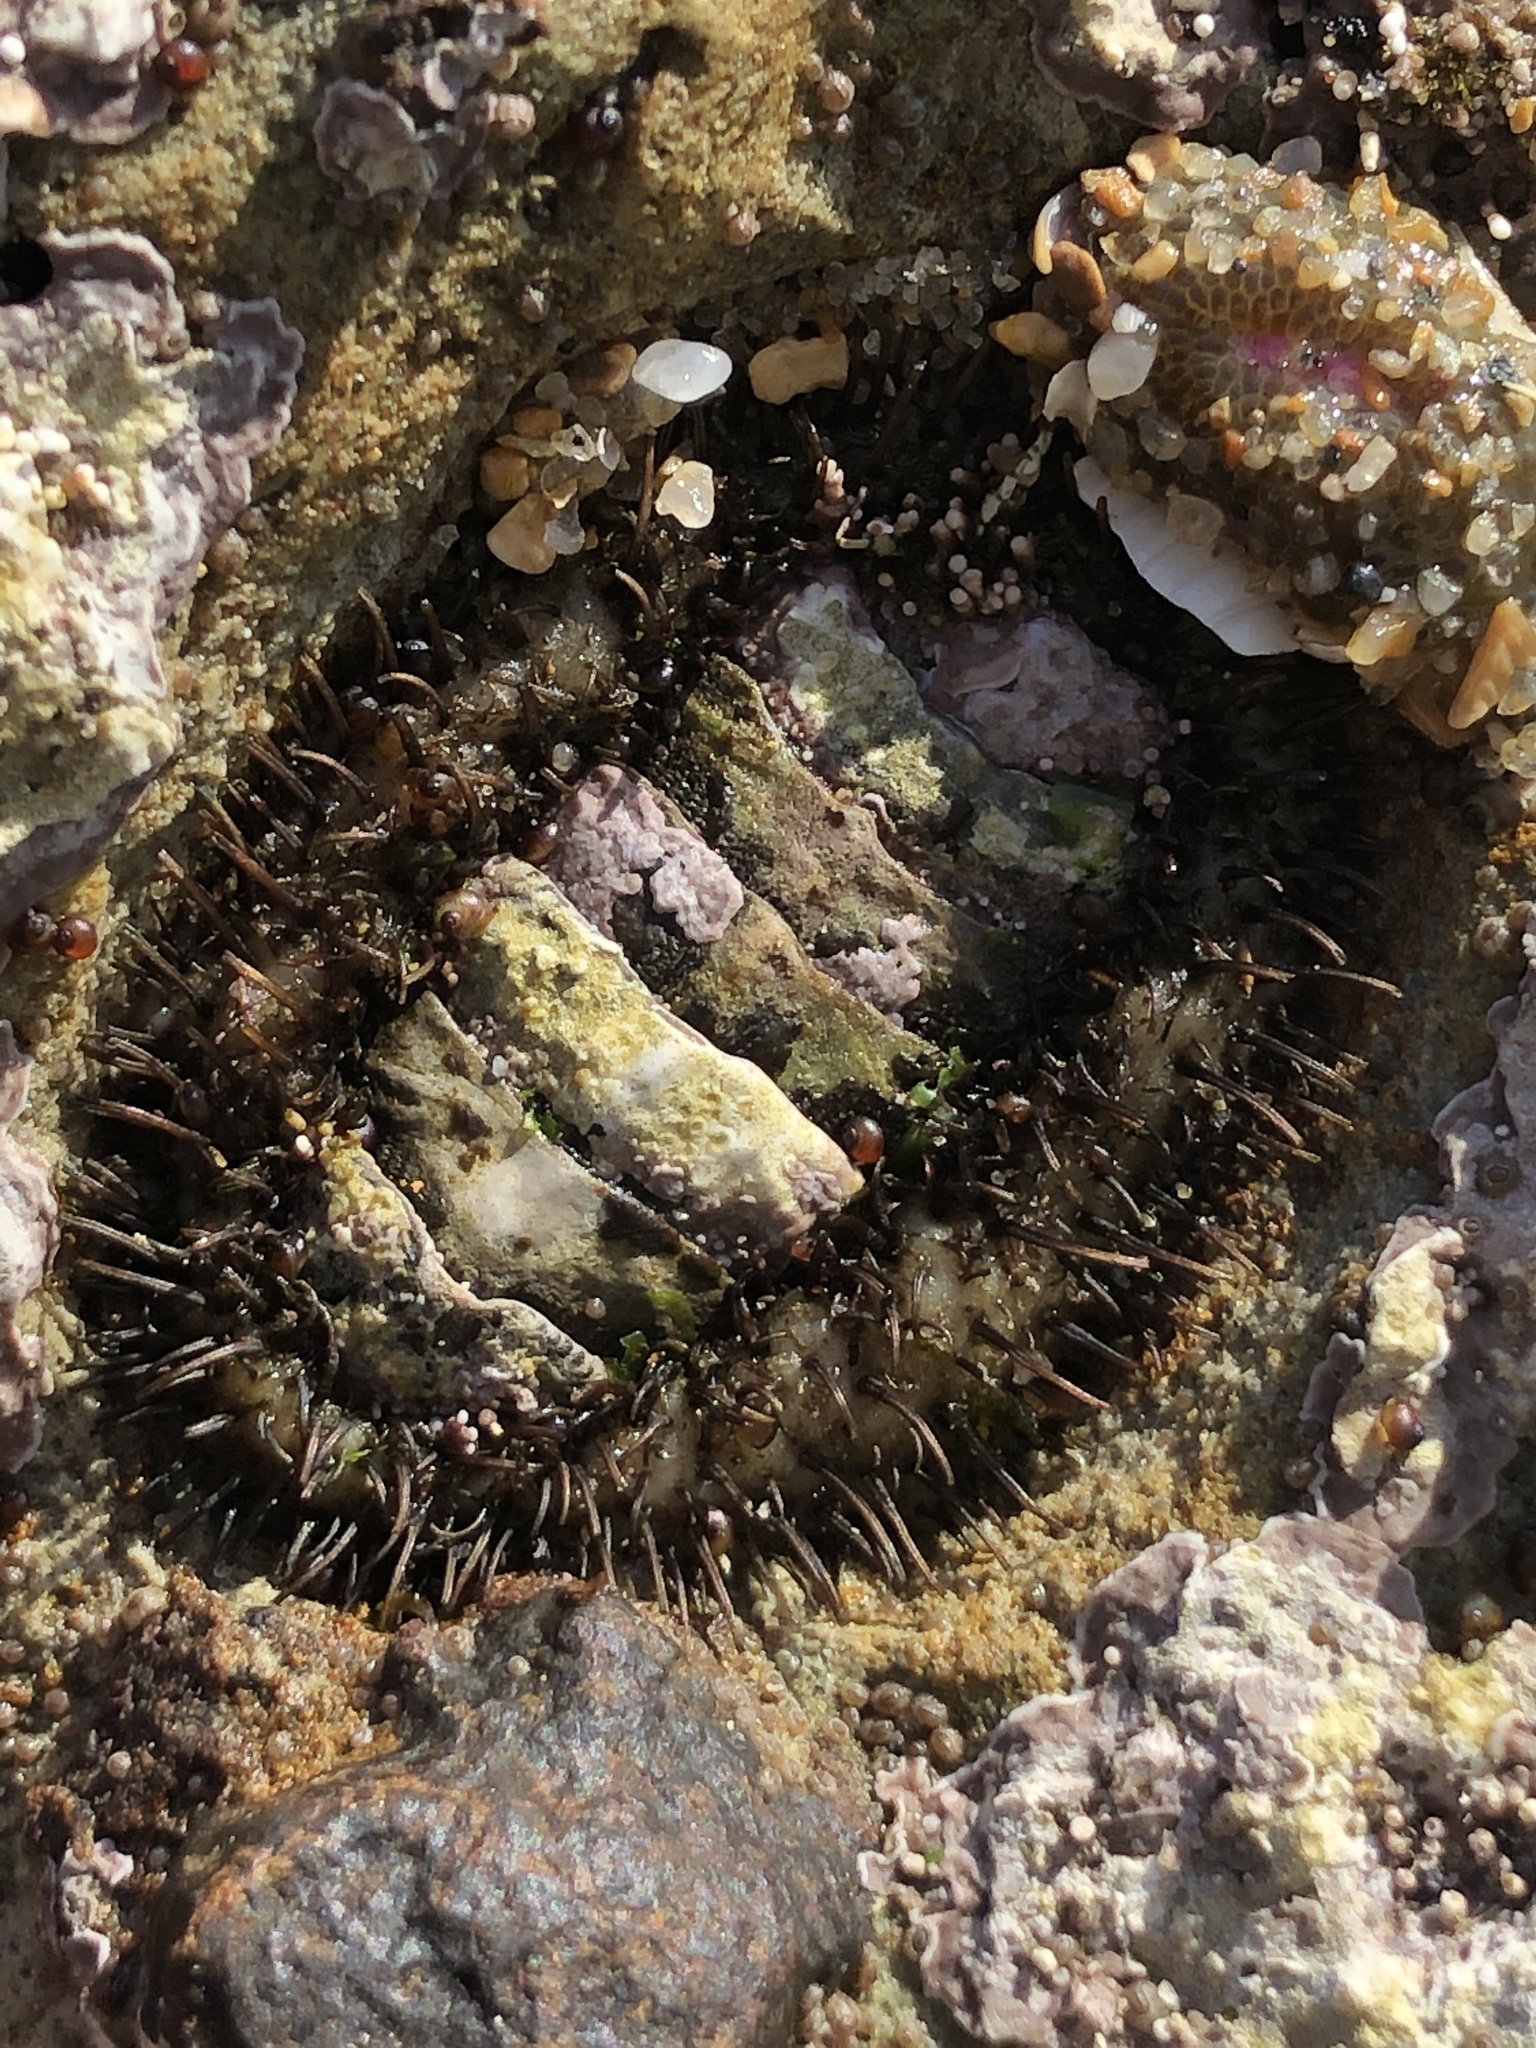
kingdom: Animalia
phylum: Mollusca
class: Polyplacophora
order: Chitonida
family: Mopaliidae
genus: Mopalia
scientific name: Mopalia muscosa
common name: Mossy chiton
